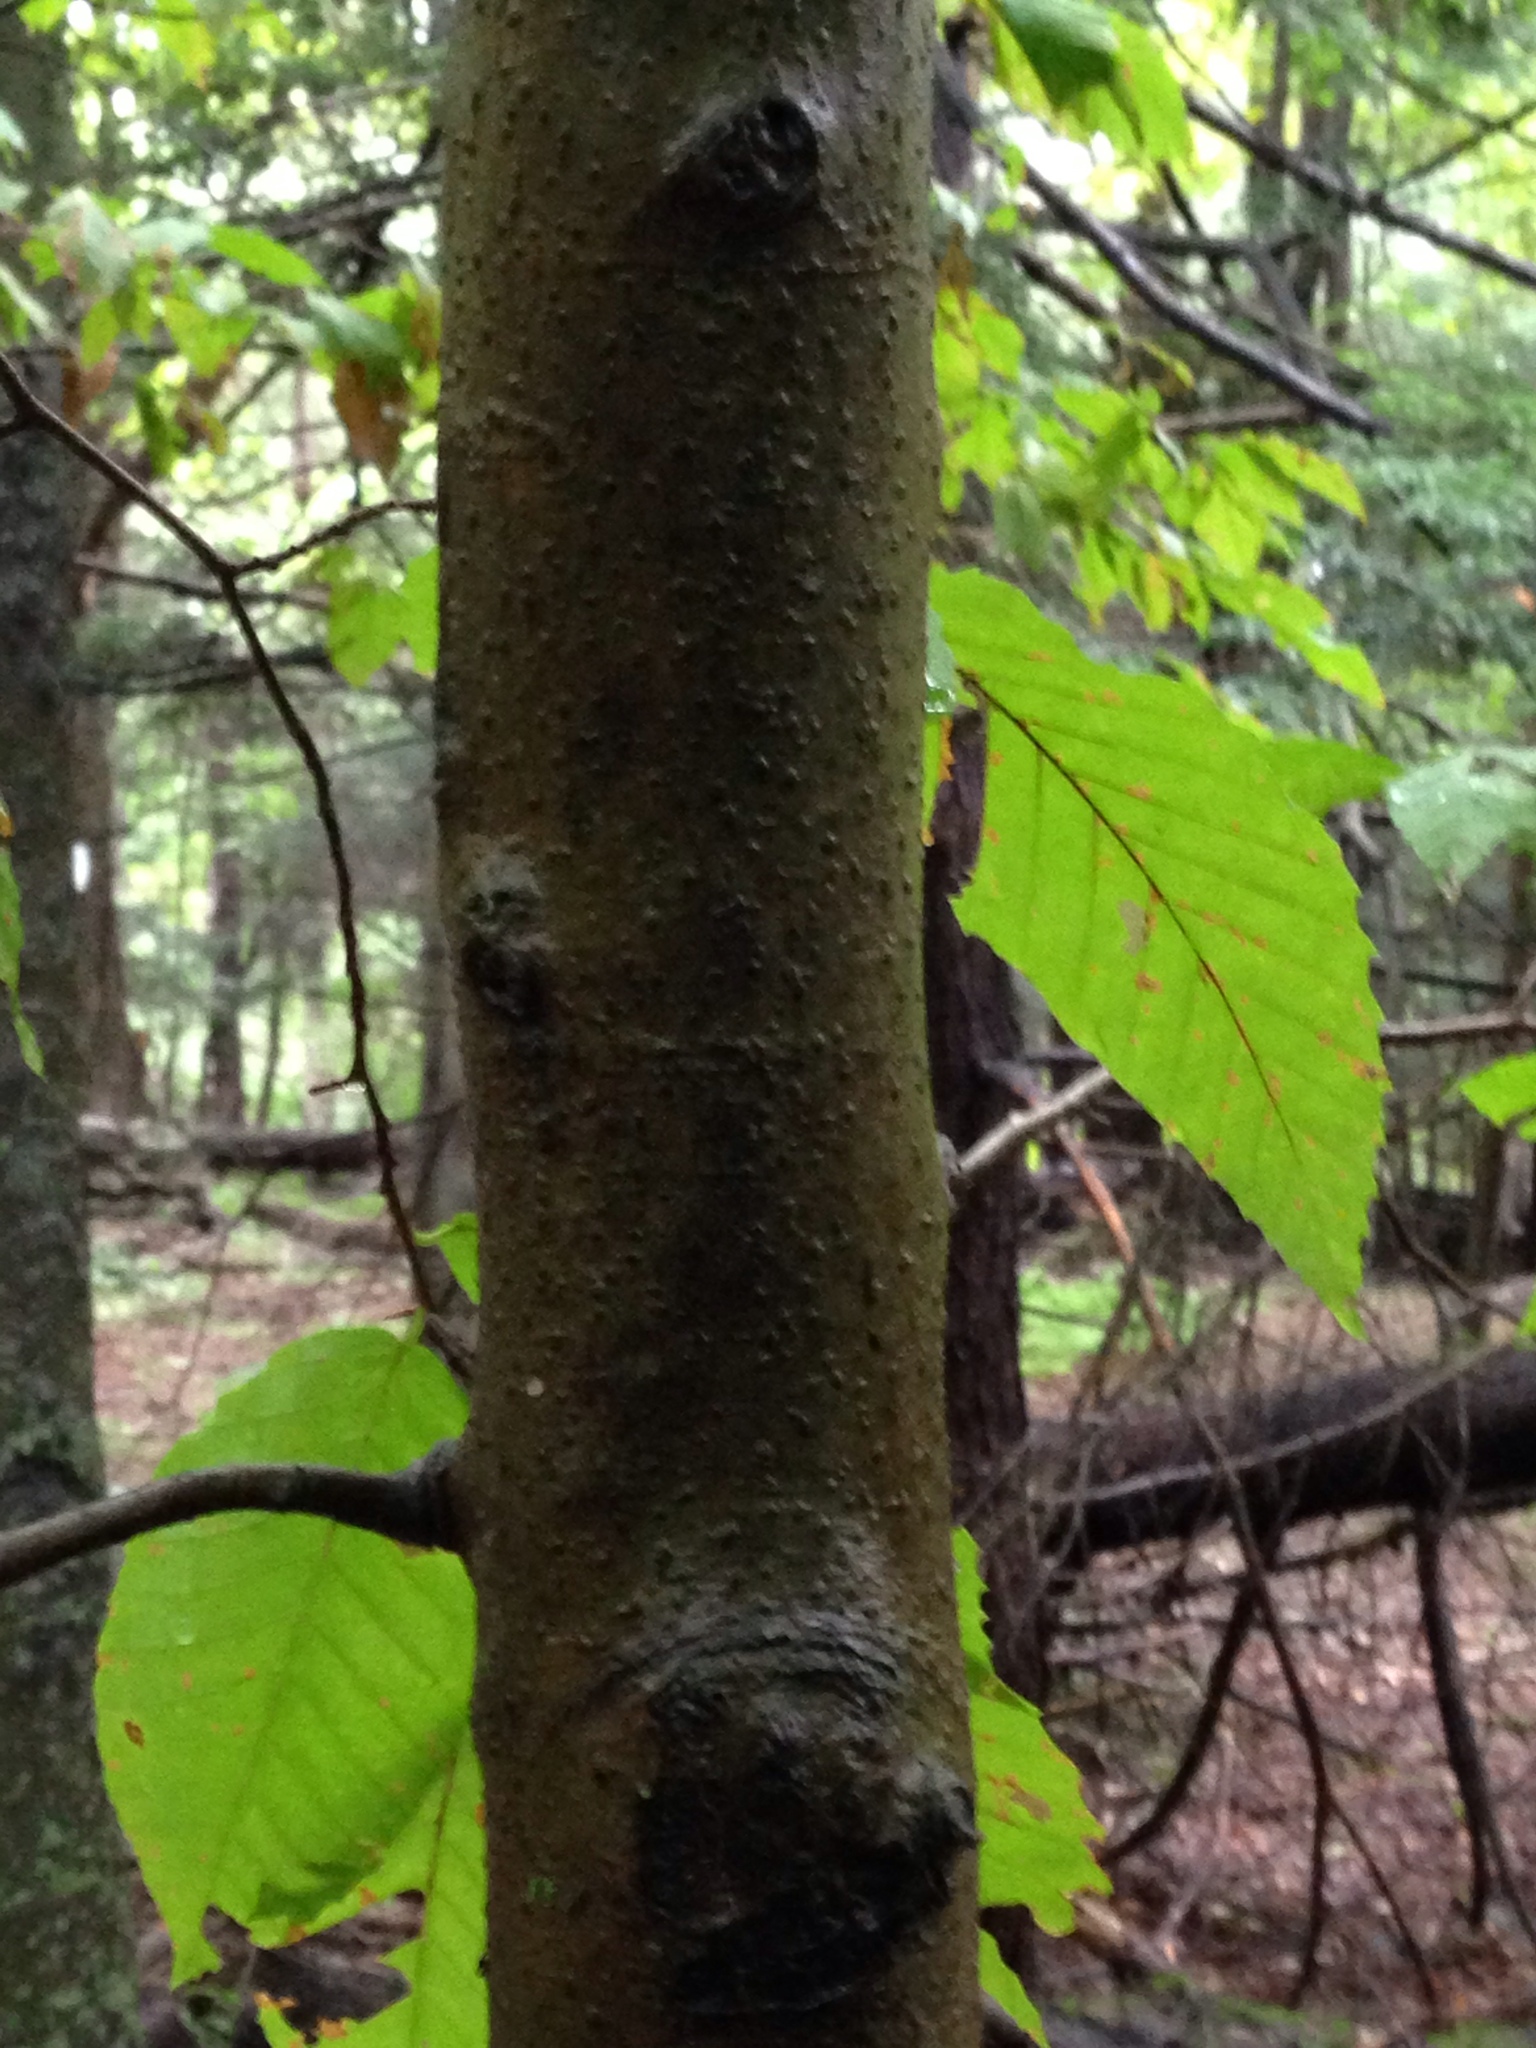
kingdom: Plantae
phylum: Tracheophyta
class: Magnoliopsida
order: Fagales
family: Fagaceae
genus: Fagus
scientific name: Fagus grandifolia
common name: American beech
